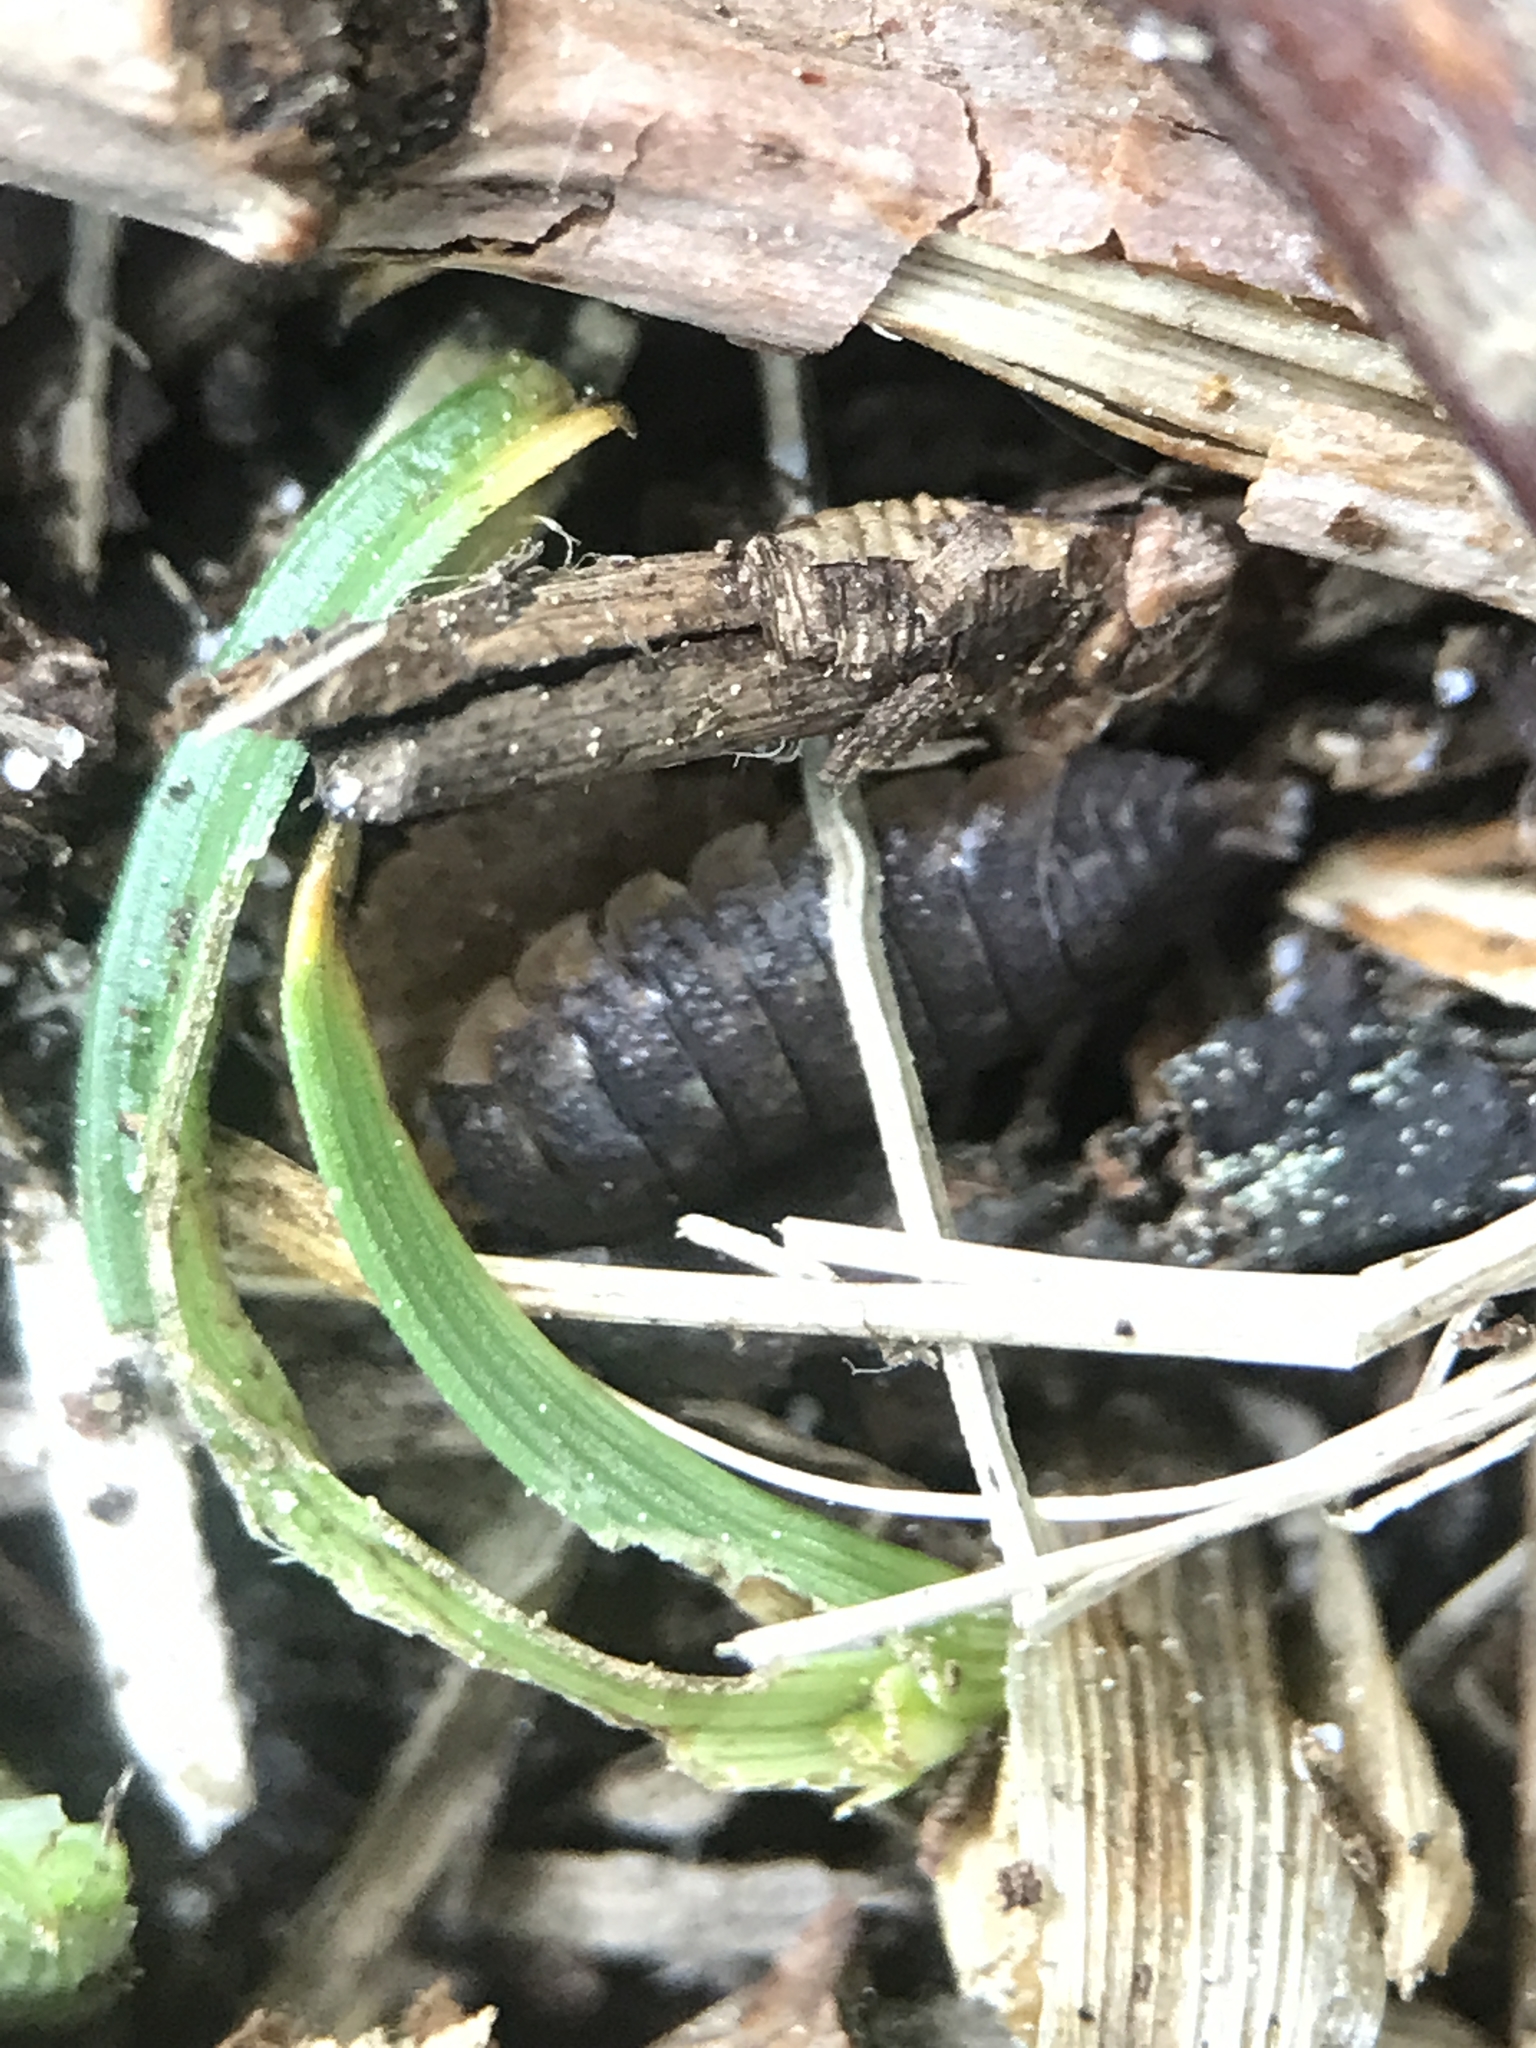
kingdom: Animalia
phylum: Arthropoda
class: Malacostraca
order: Isopoda
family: Porcellionidae
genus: Porcellio
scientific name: Porcellio scaber
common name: Common rough woodlouse
